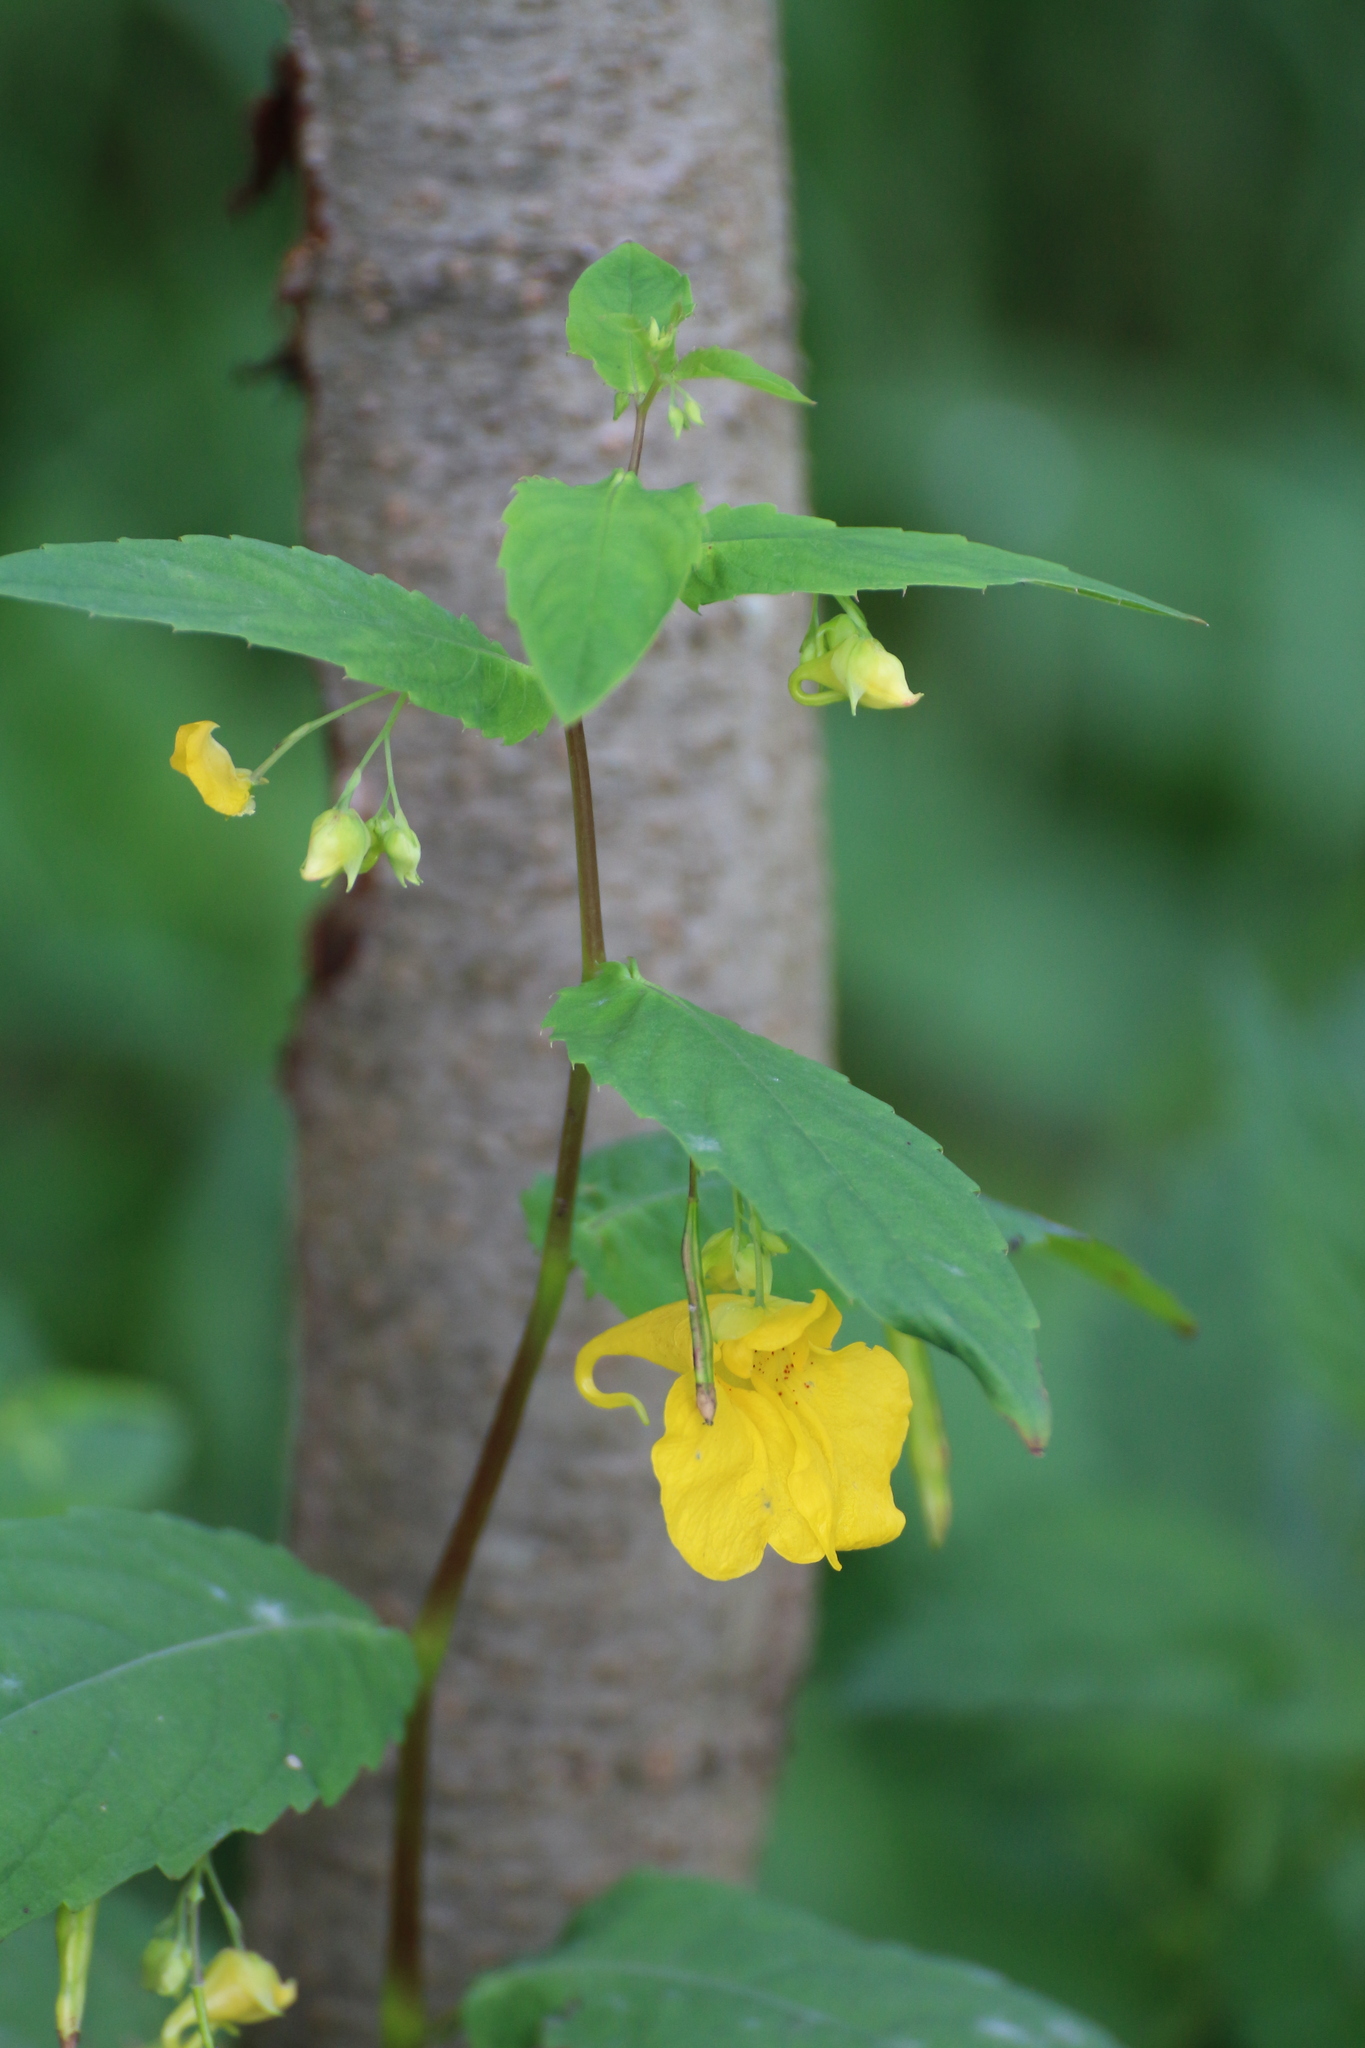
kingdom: Plantae
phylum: Tracheophyta
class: Magnoliopsida
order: Ericales
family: Balsaminaceae
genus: Impatiens
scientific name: Impatiens noli-tangere
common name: Touch-me-not balsam
